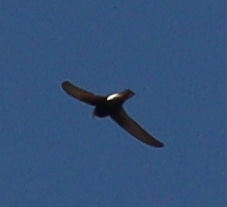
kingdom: Animalia
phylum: Chordata
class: Aves
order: Apodiformes
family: Apodidae
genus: Apus
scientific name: Apus affinis
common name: Little swift
